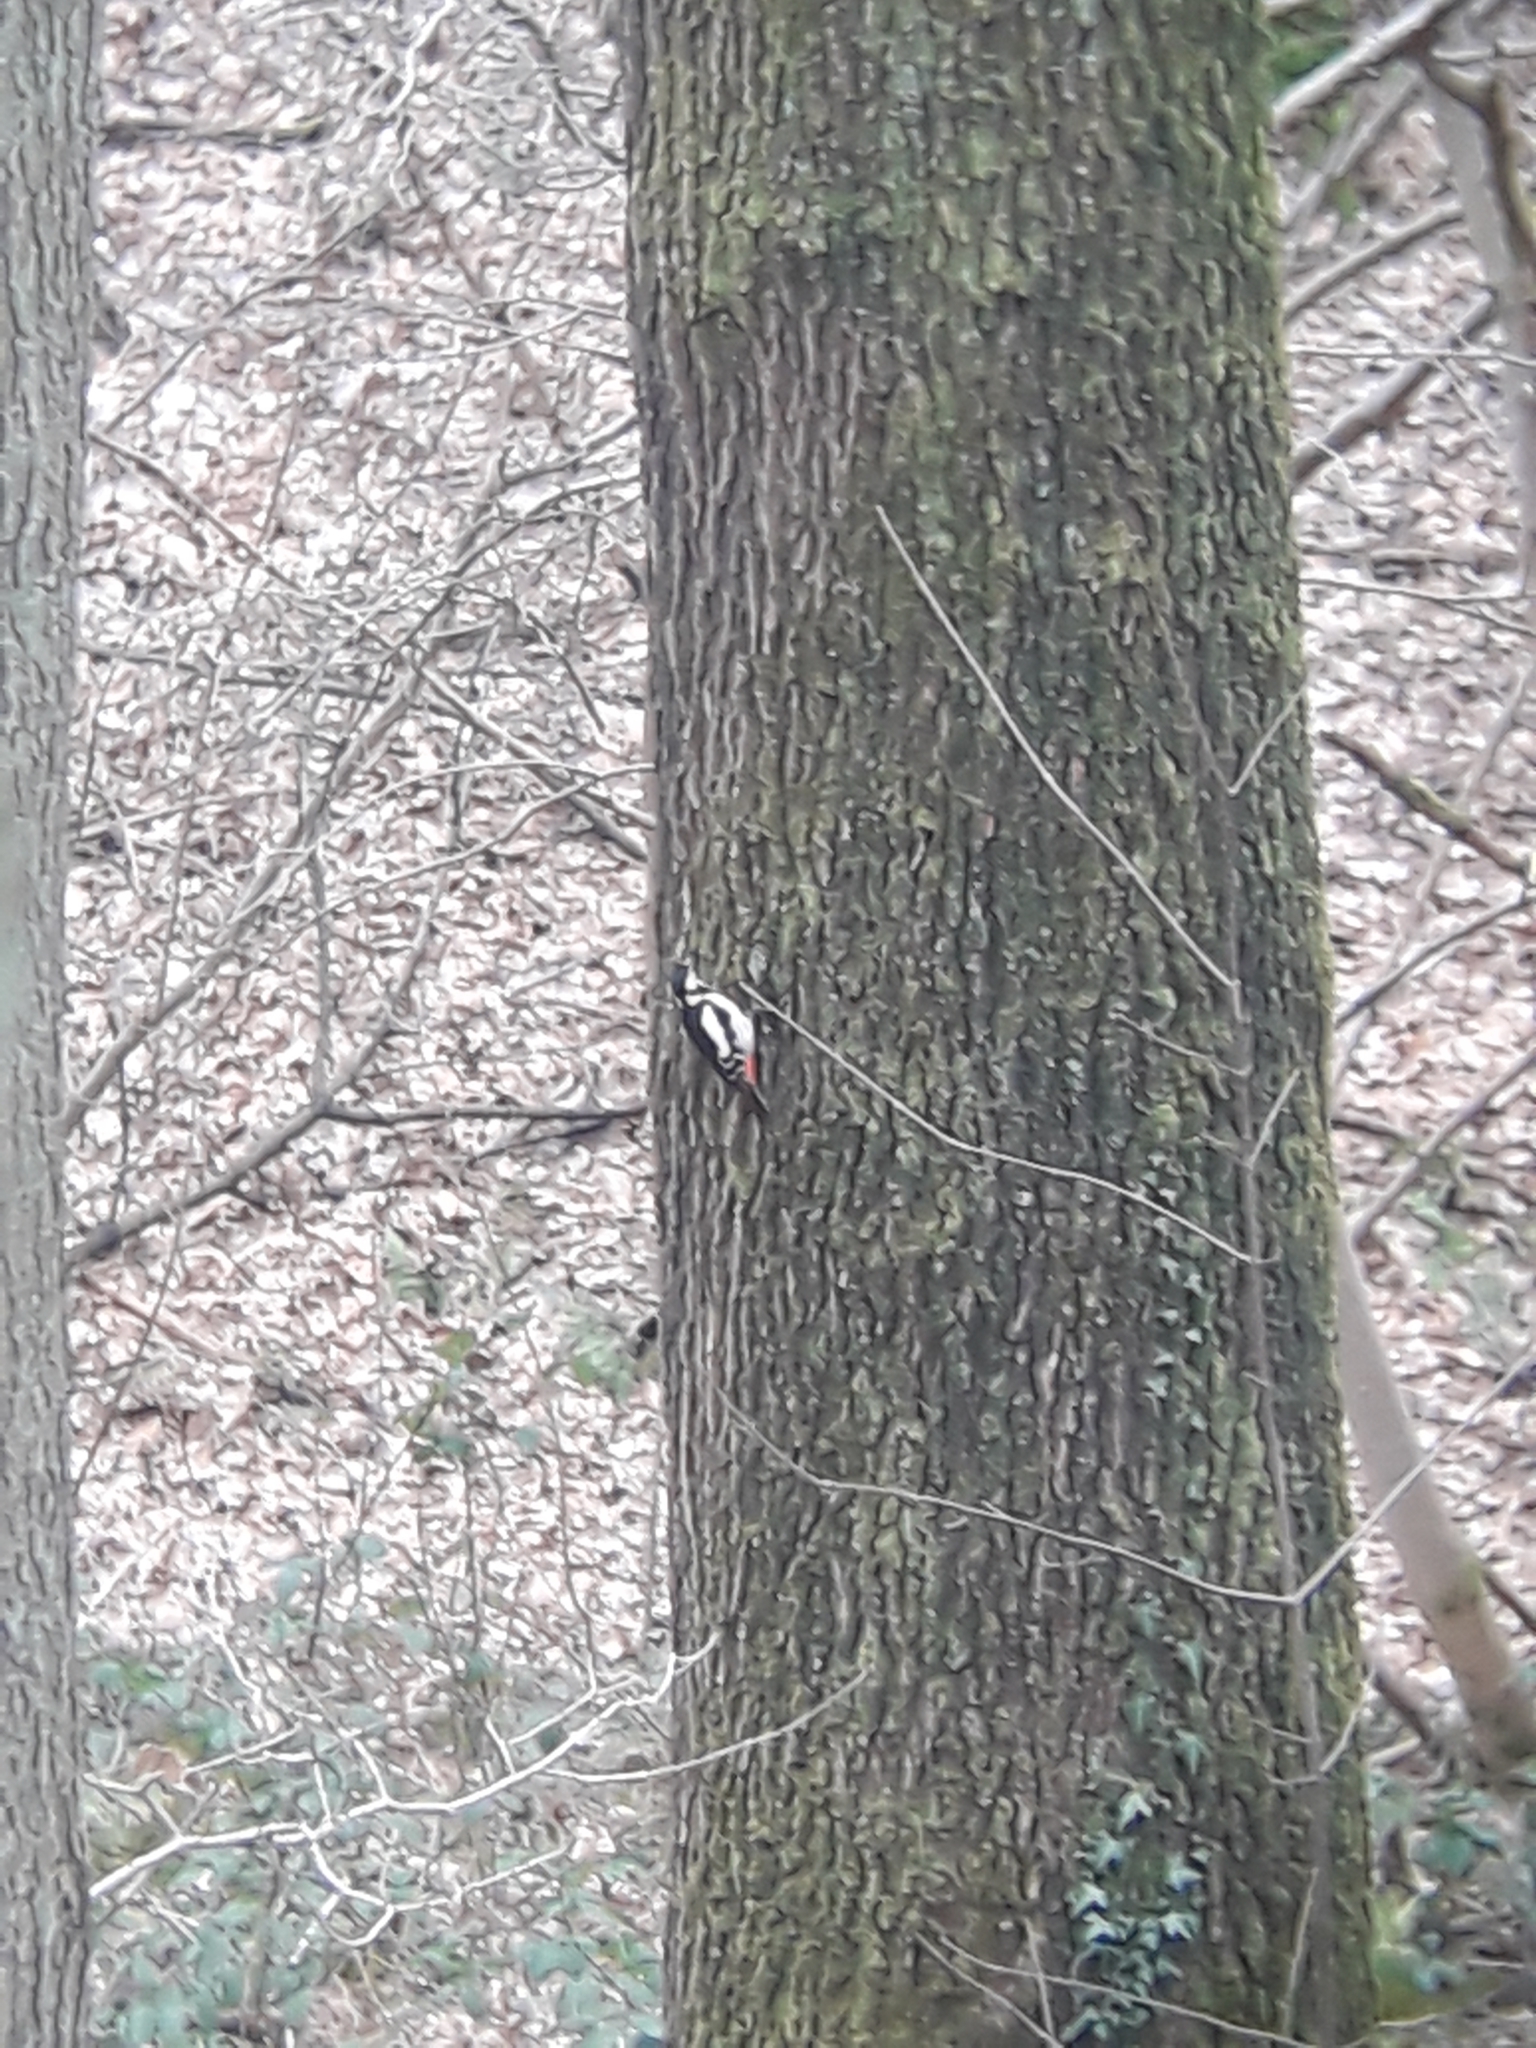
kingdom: Animalia
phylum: Chordata
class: Aves
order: Piciformes
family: Picidae
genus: Dendrocopos
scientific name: Dendrocopos major
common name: Great spotted woodpecker
